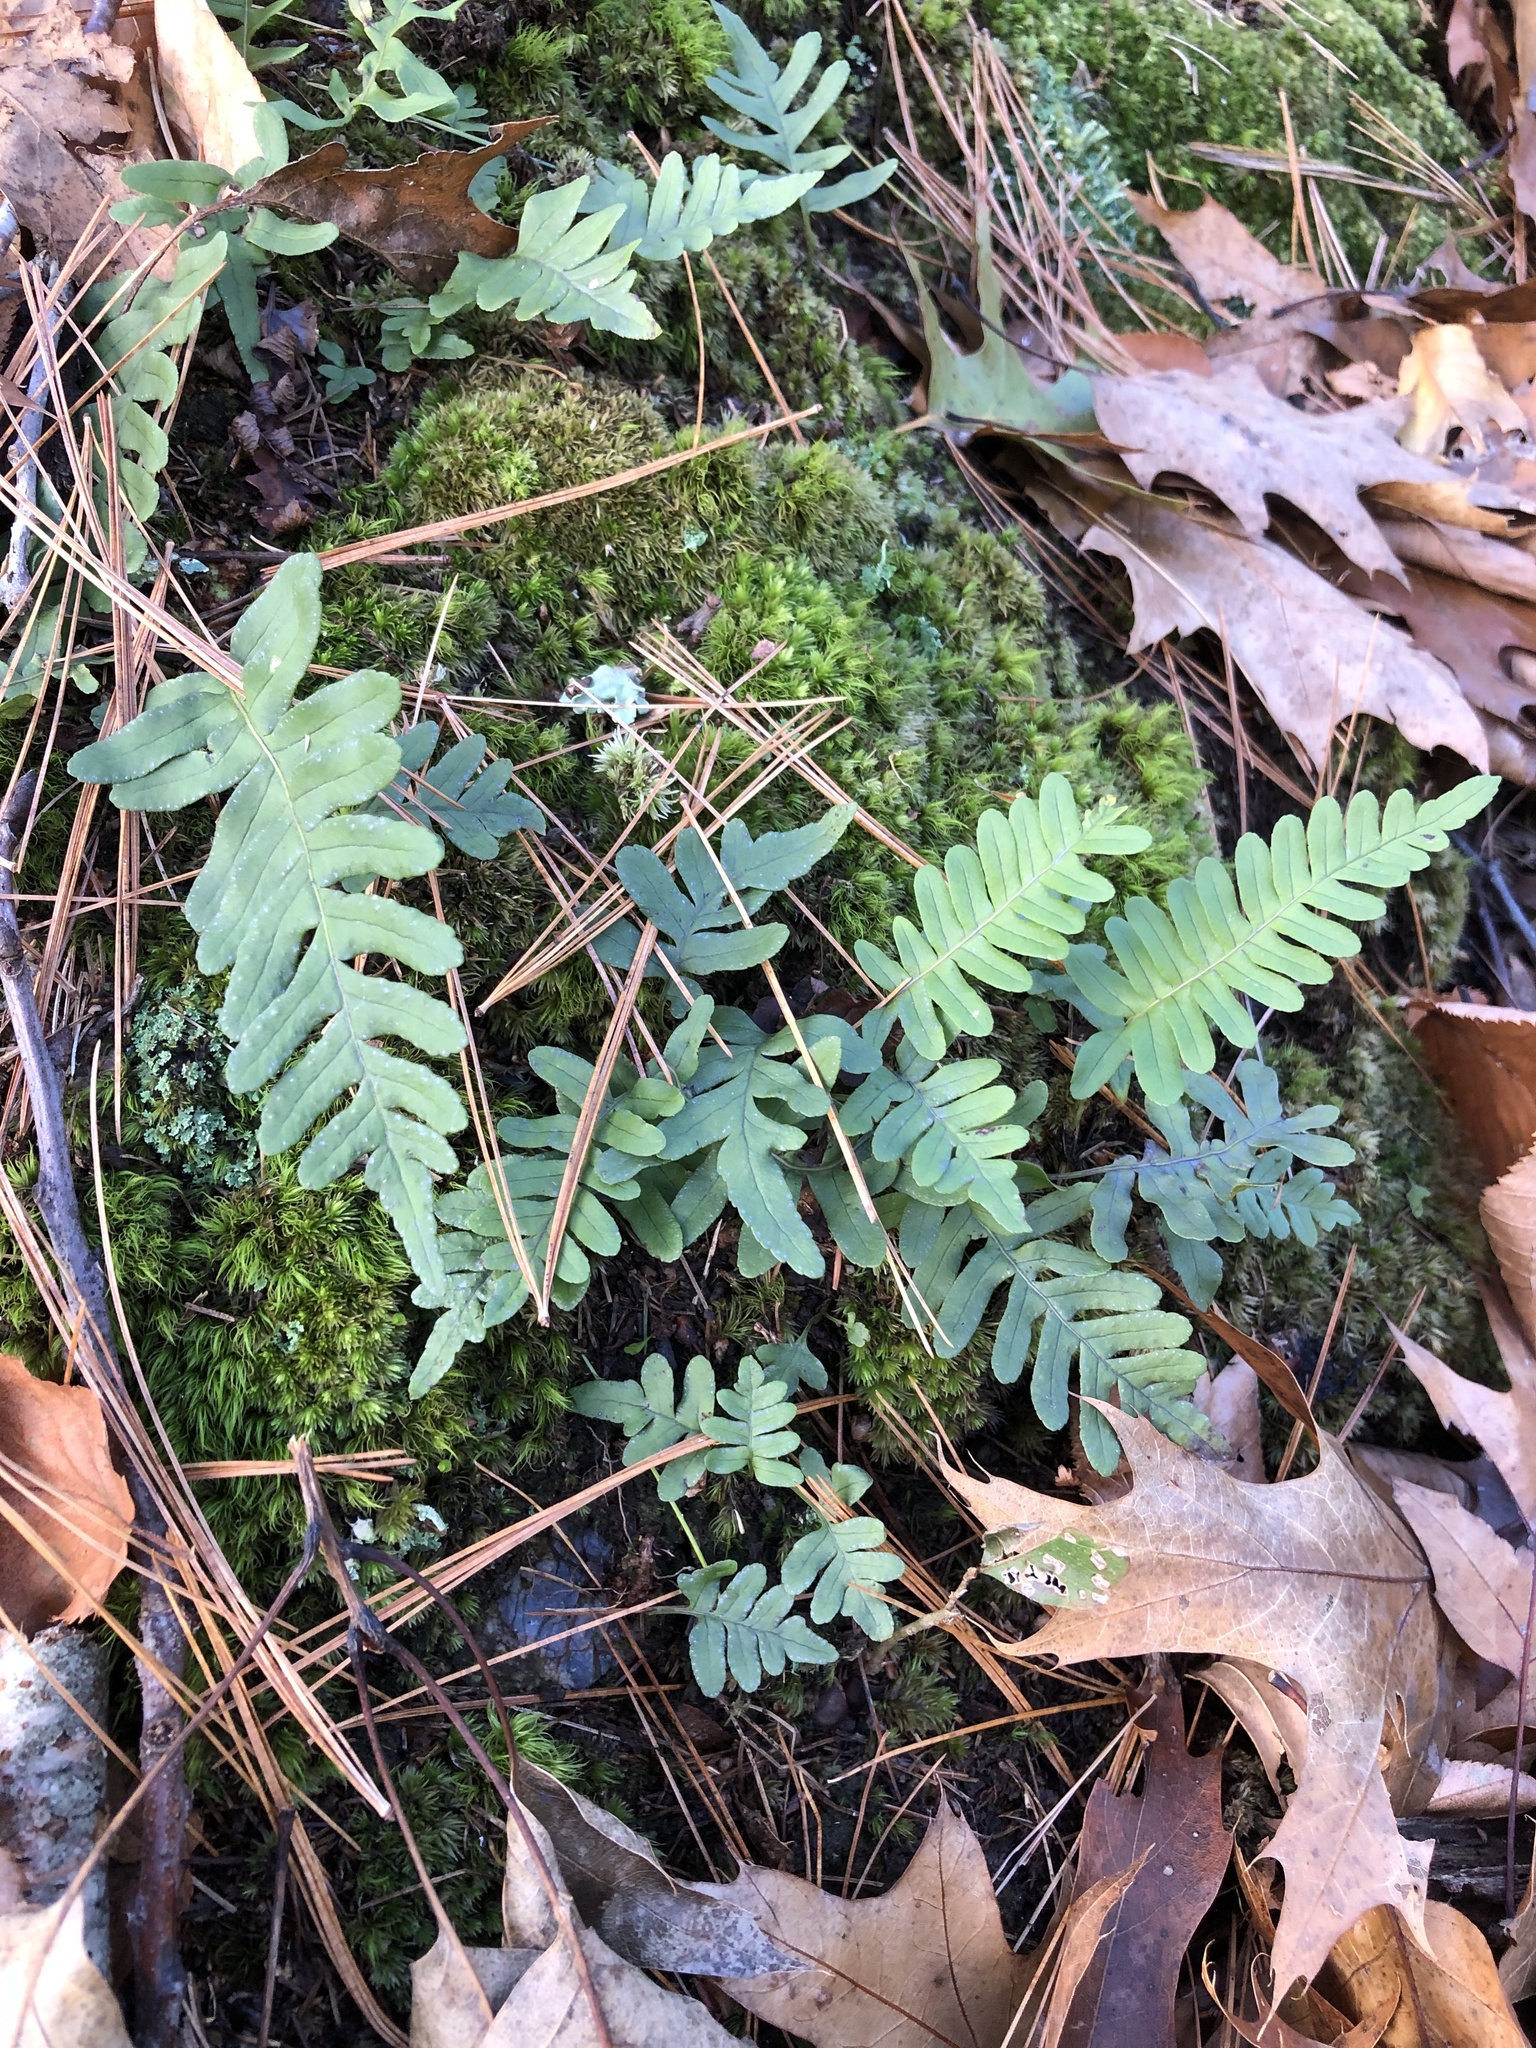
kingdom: Plantae
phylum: Tracheophyta
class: Polypodiopsida
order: Polypodiales
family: Polypodiaceae
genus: Polypodium
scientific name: Polypodium virginianum
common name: American wall fern
